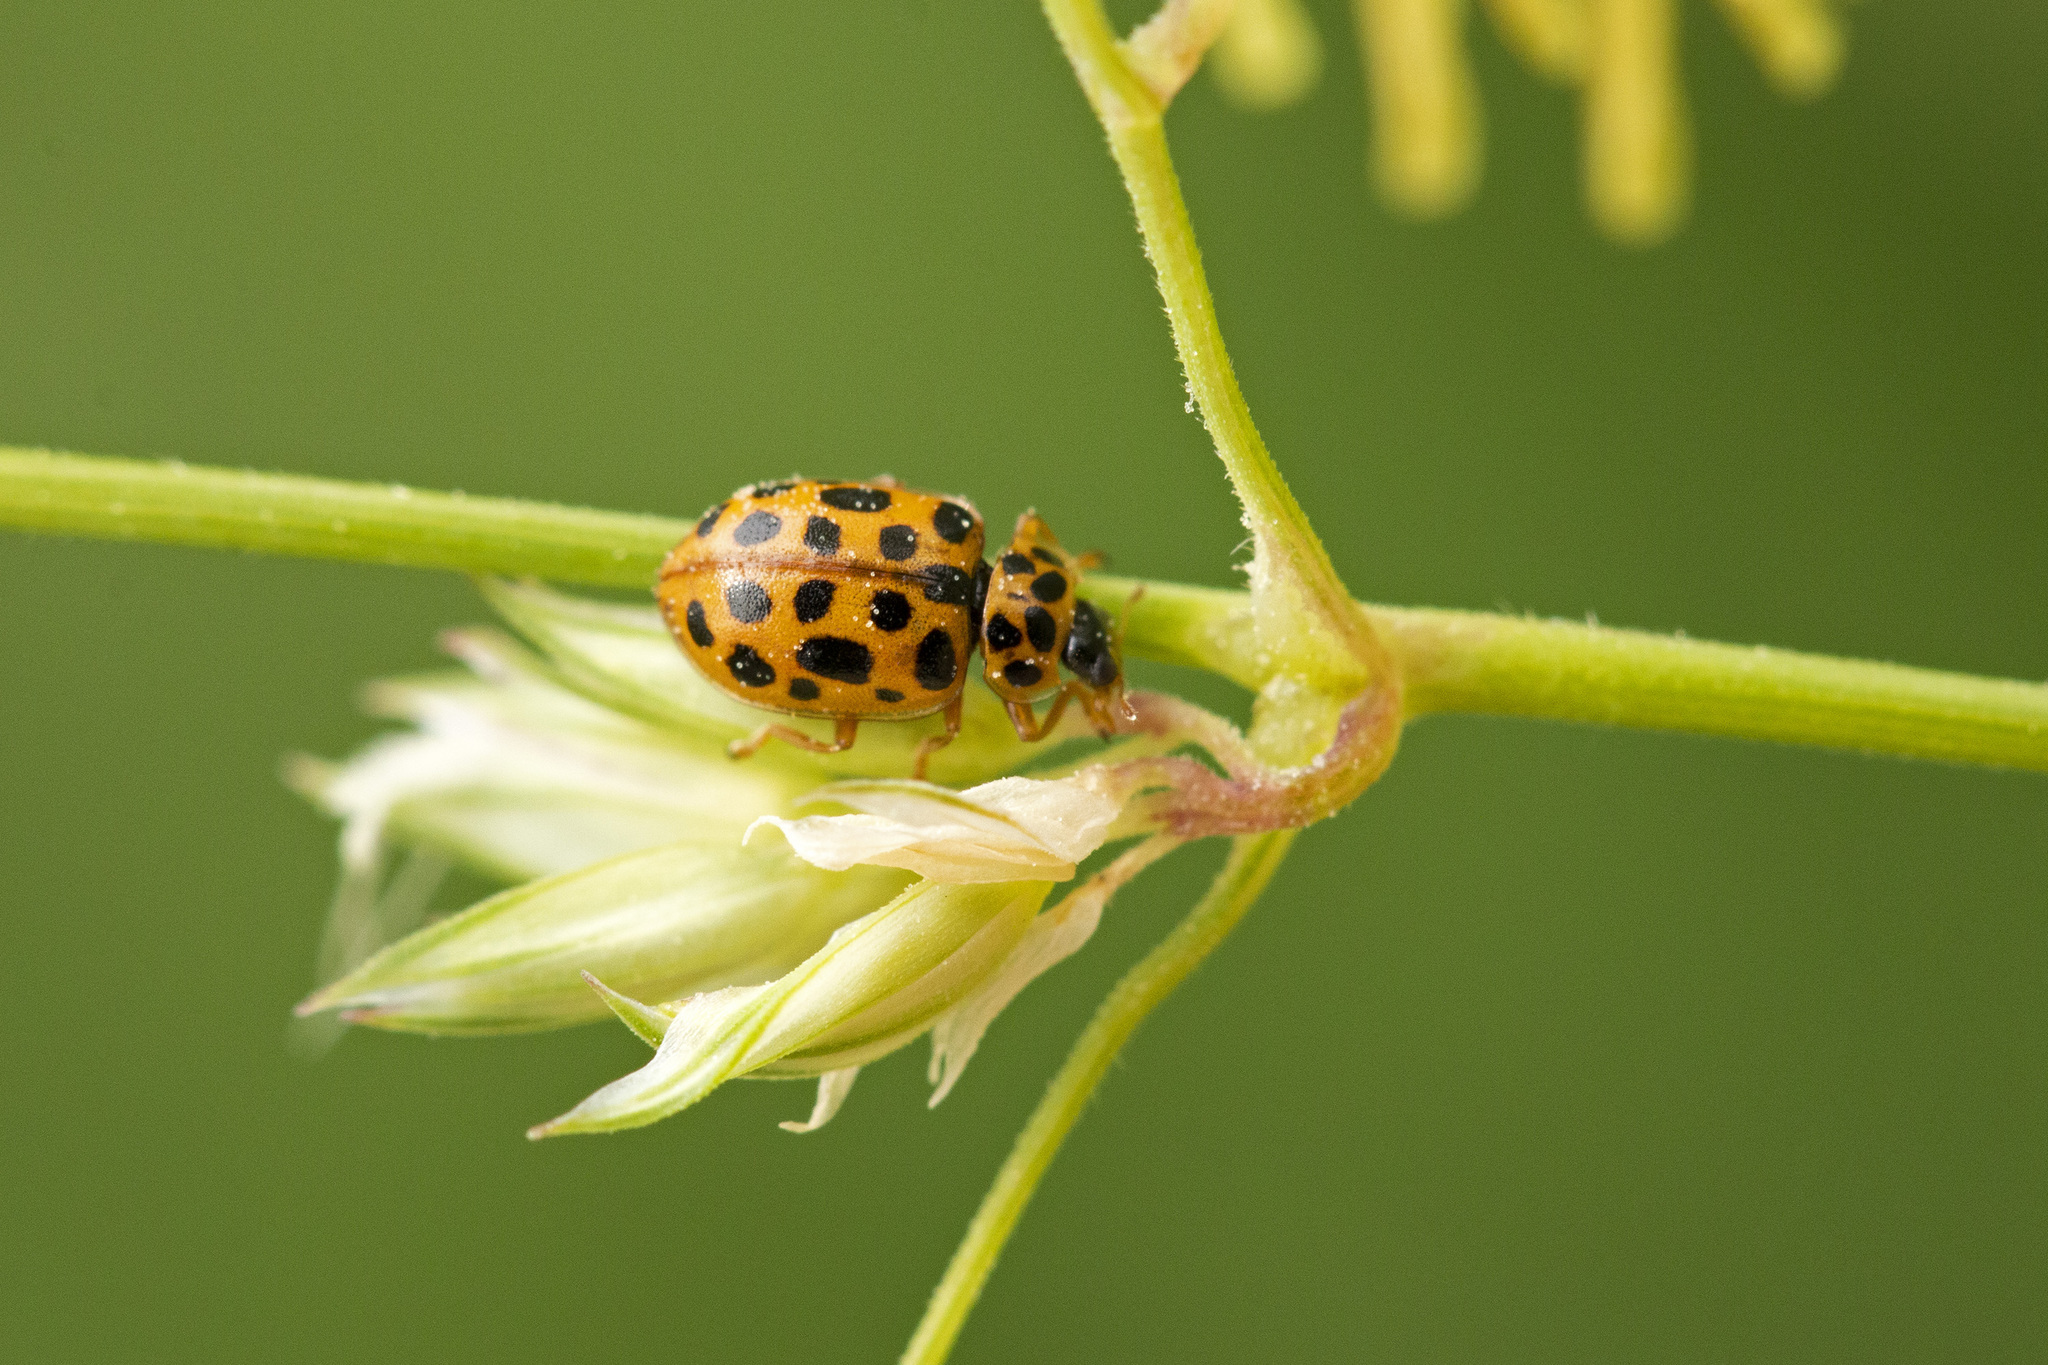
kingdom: Animalia
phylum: Arthropoda
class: Insecta
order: Coleoptera
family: Coccinellidae
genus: Anisosticta
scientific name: Anisosticta novemdecimpunctata
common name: Water ladybird
